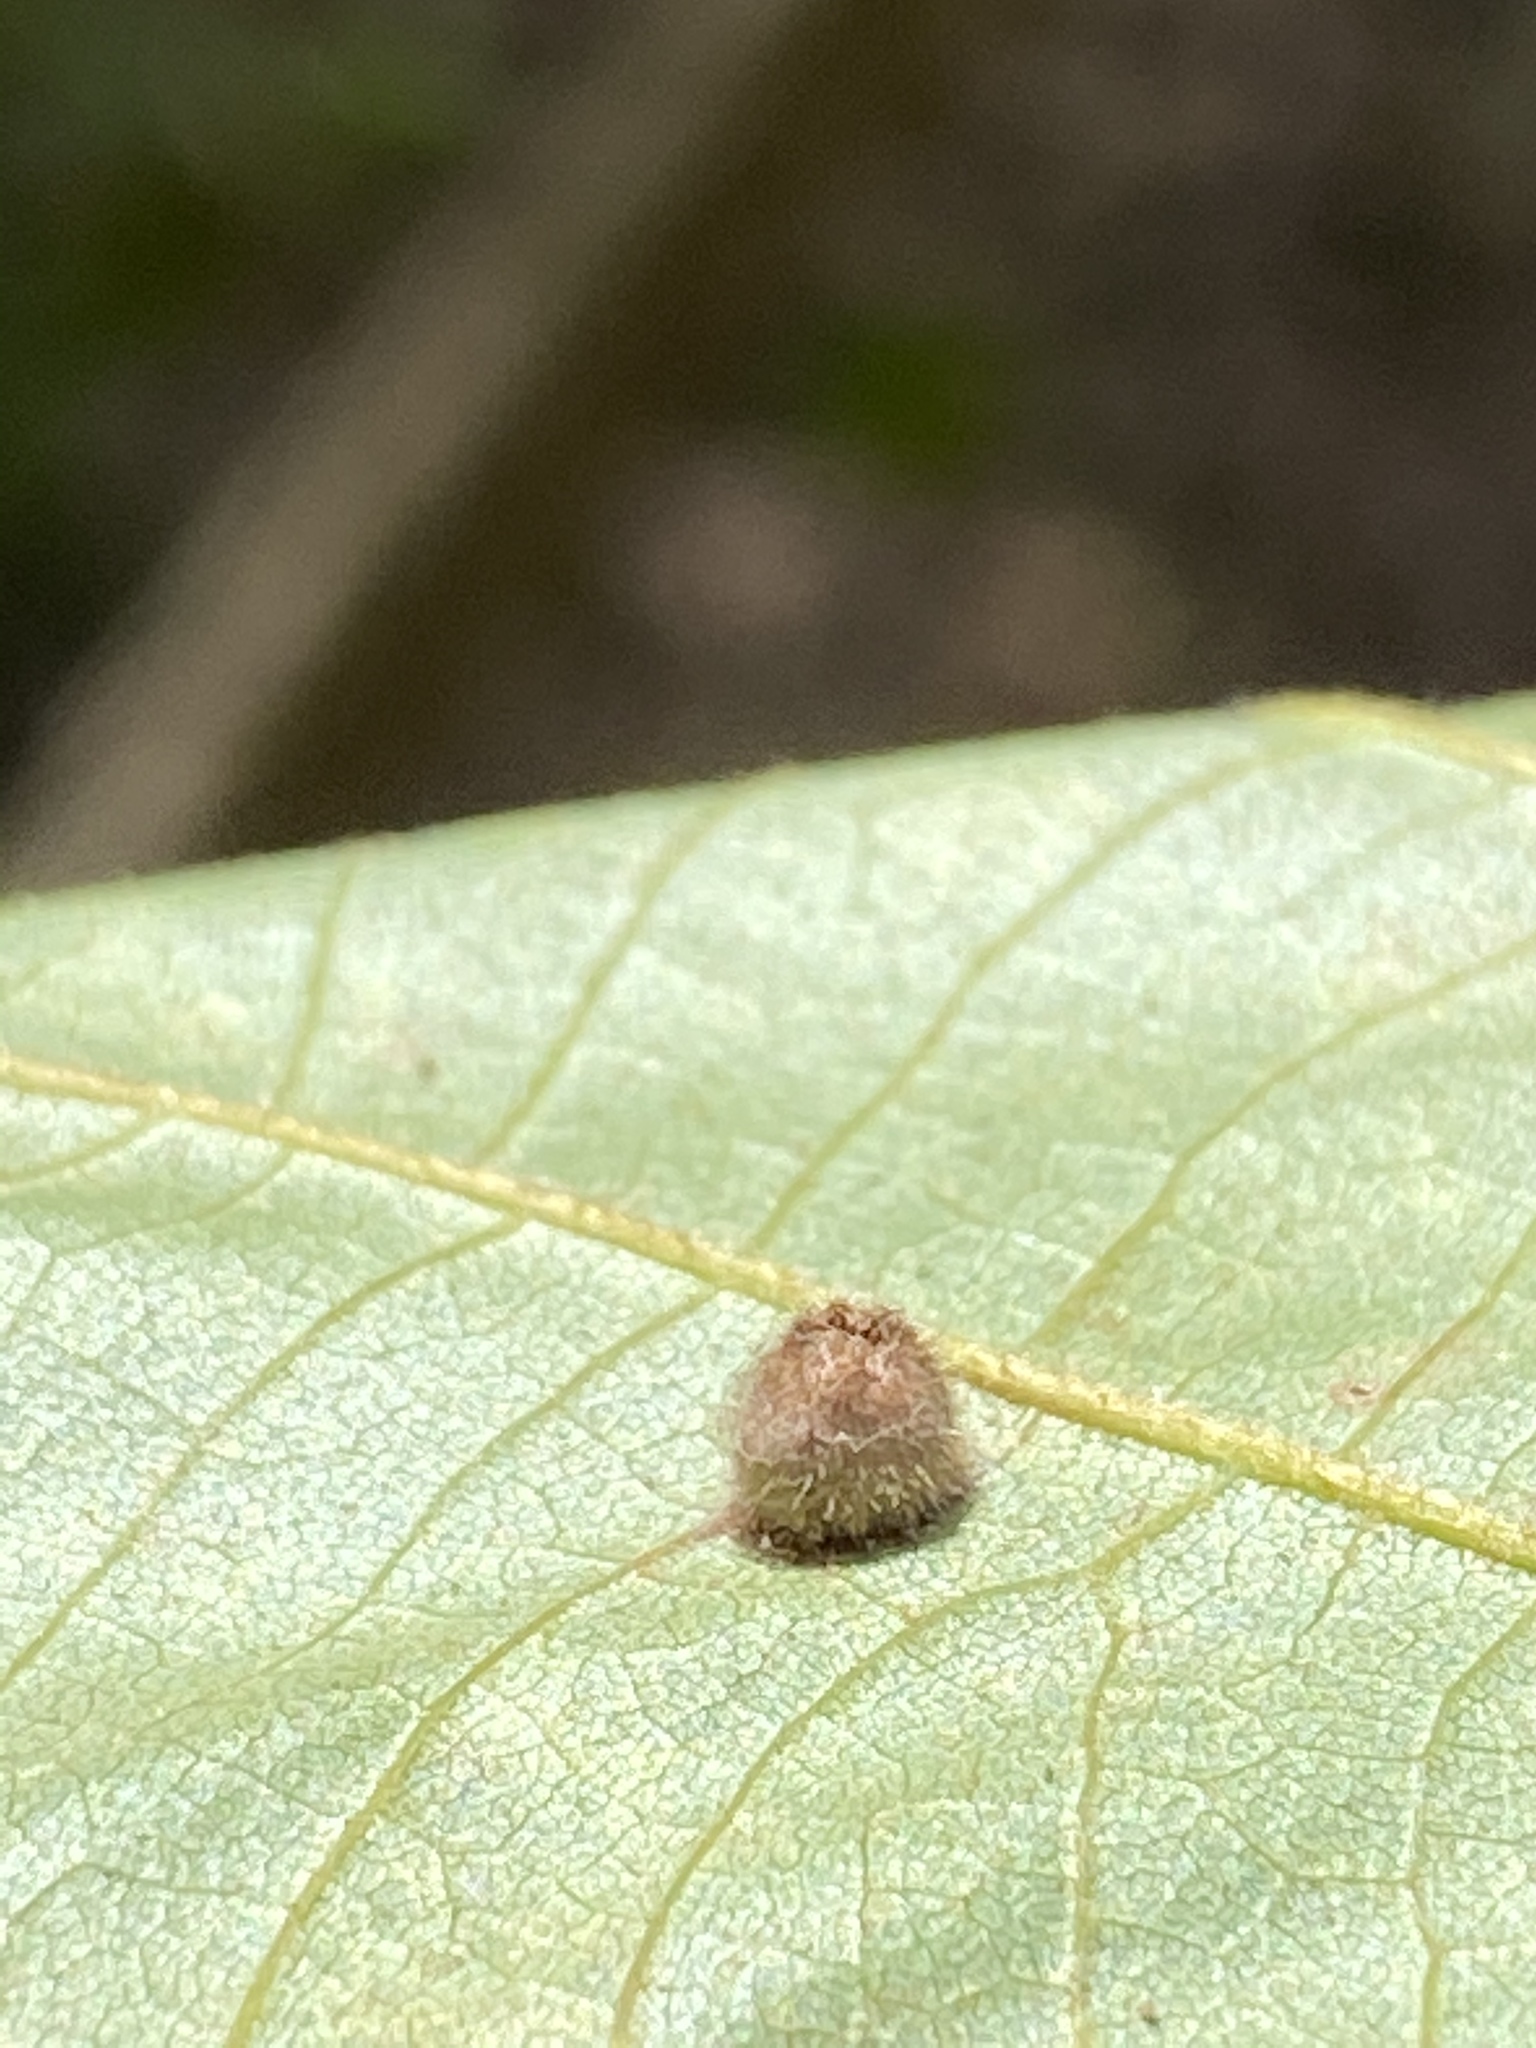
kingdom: Animalia
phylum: Arthropoda
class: Insecta
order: Diptera
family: Cecidomyiidae
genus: Caryomyia
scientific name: Caryomyia inanis
